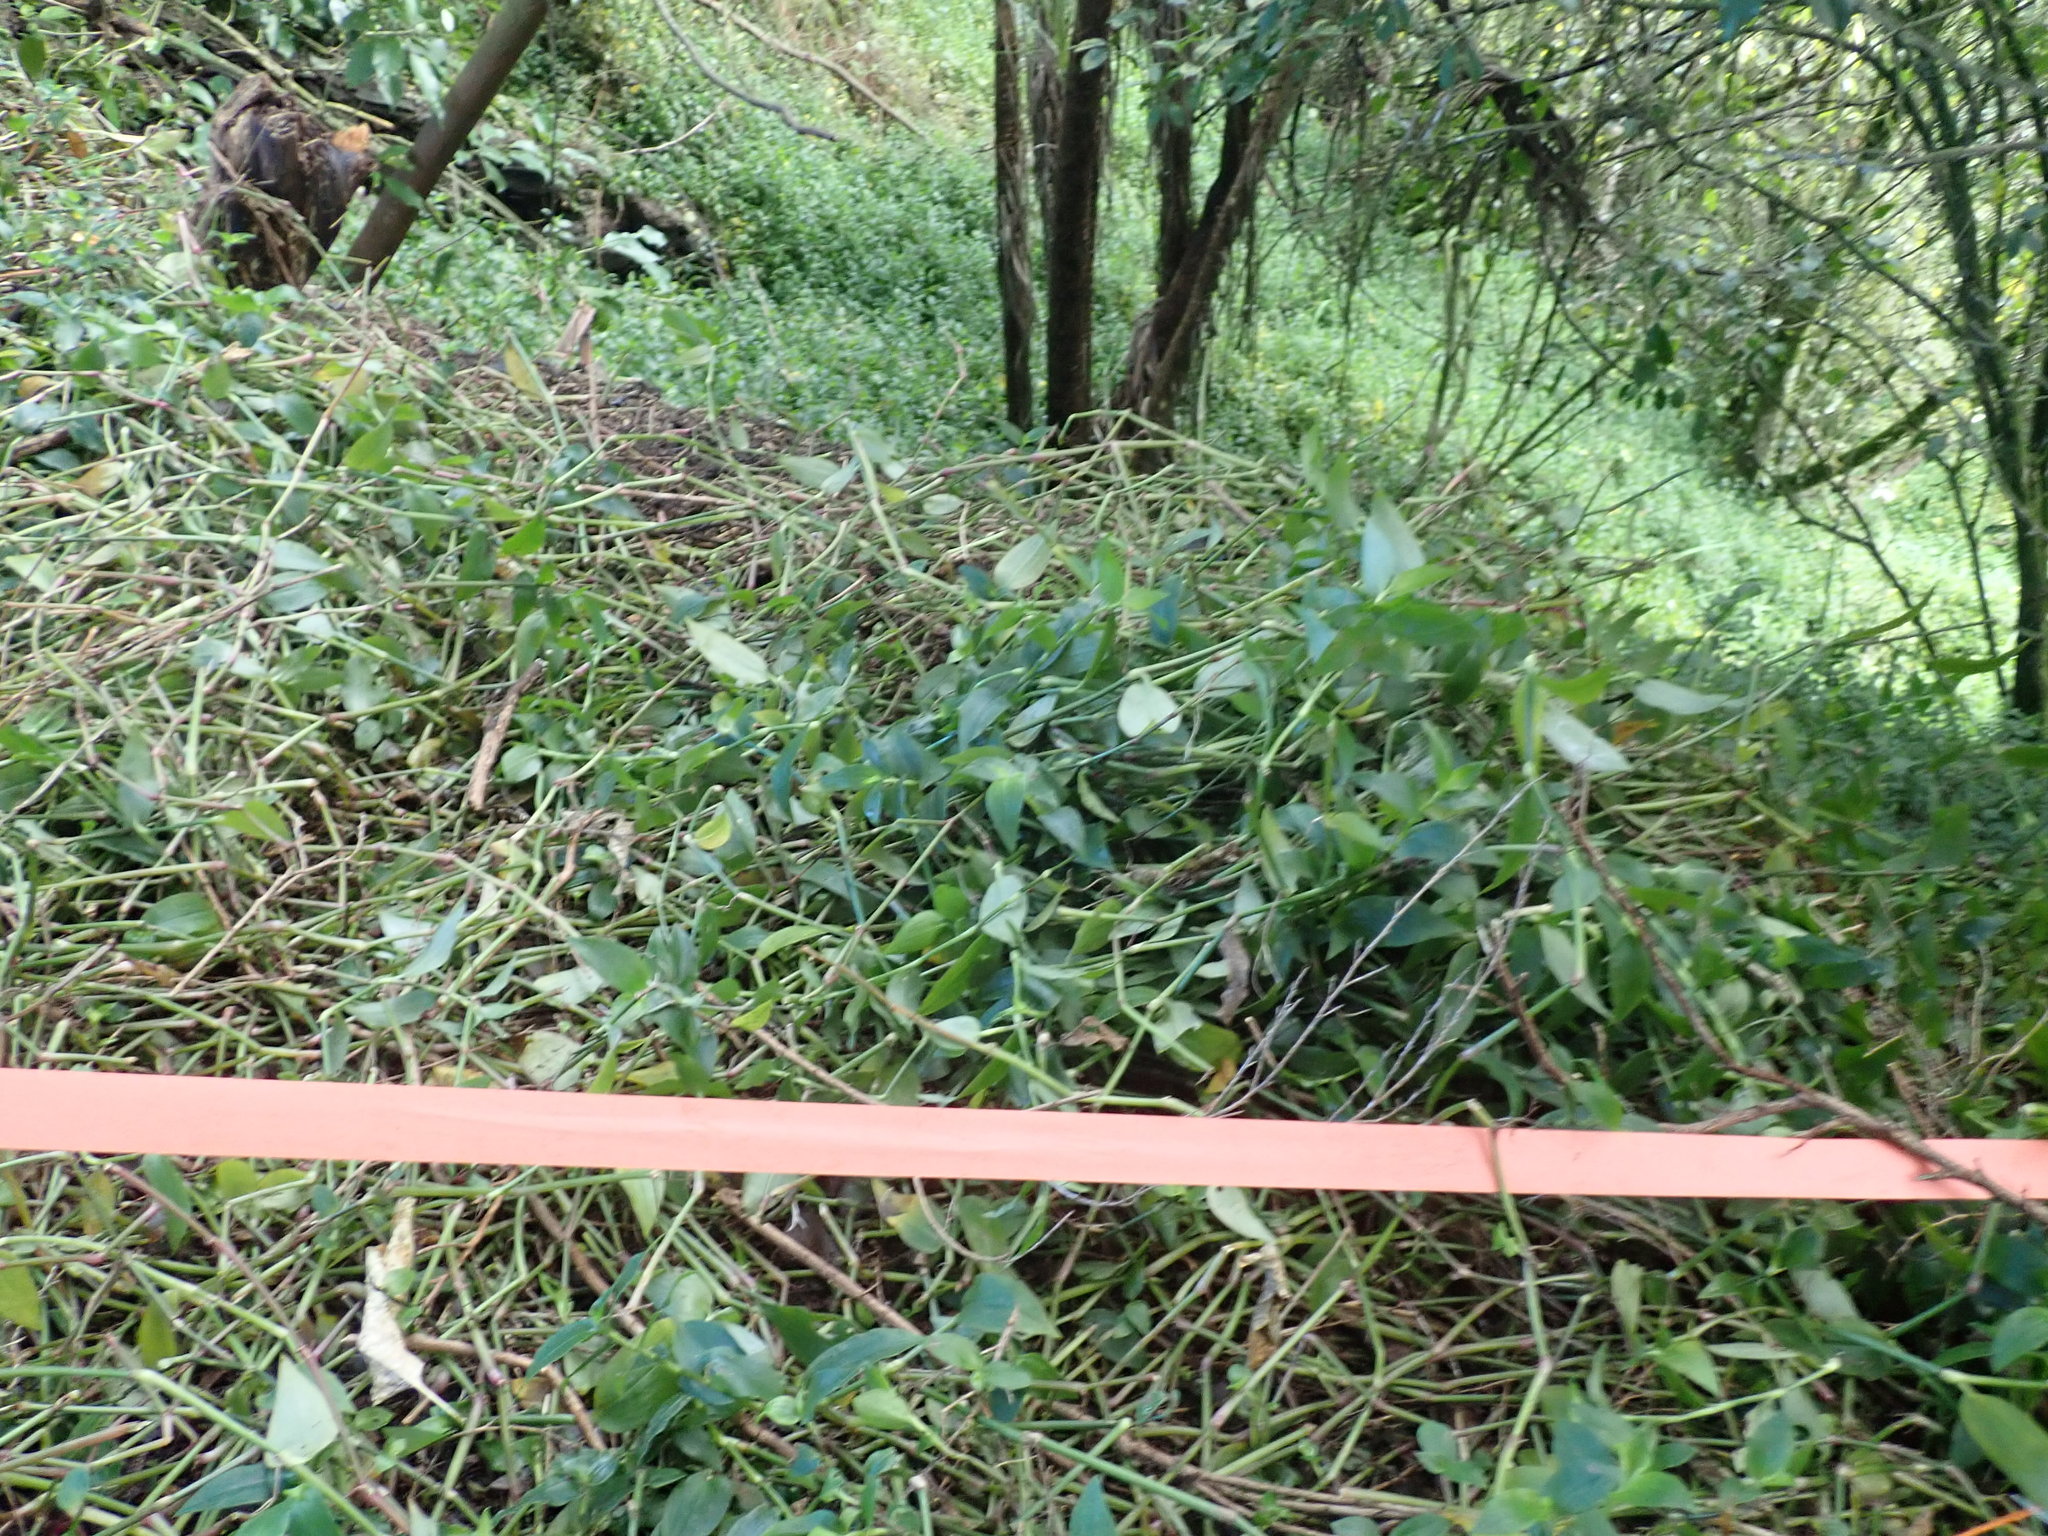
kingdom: Plantae
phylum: Tracheophyta
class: Liliopsida
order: Commelinales
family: Commelinaceae
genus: Tradescantia
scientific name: Tradescantia fluminensis
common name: Wandering-jew
